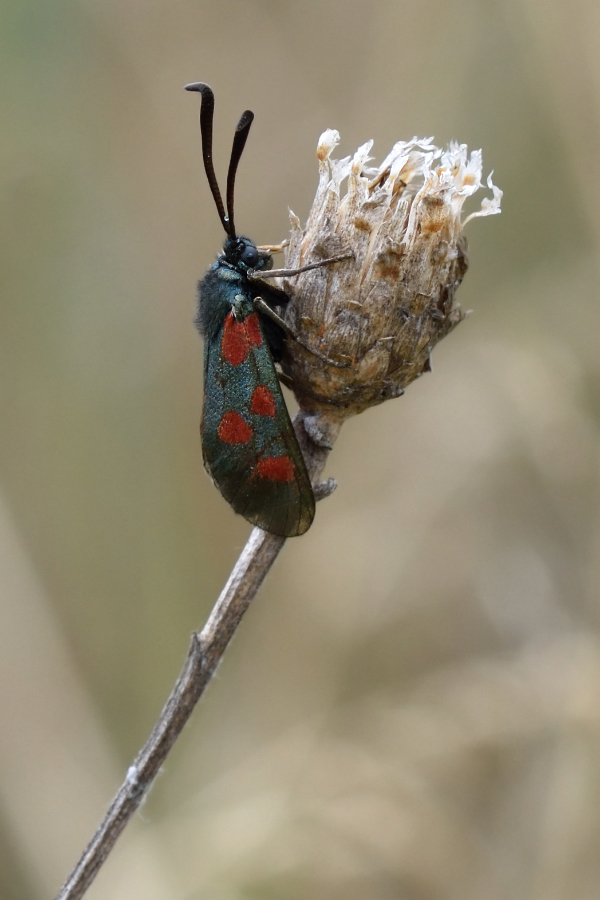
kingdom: Animalia
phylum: Arthropoda
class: Insecta
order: Lepidoptera
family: Zygaenidae
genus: Zygaena
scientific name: Zygaena loti
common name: Slender scotch burnet
